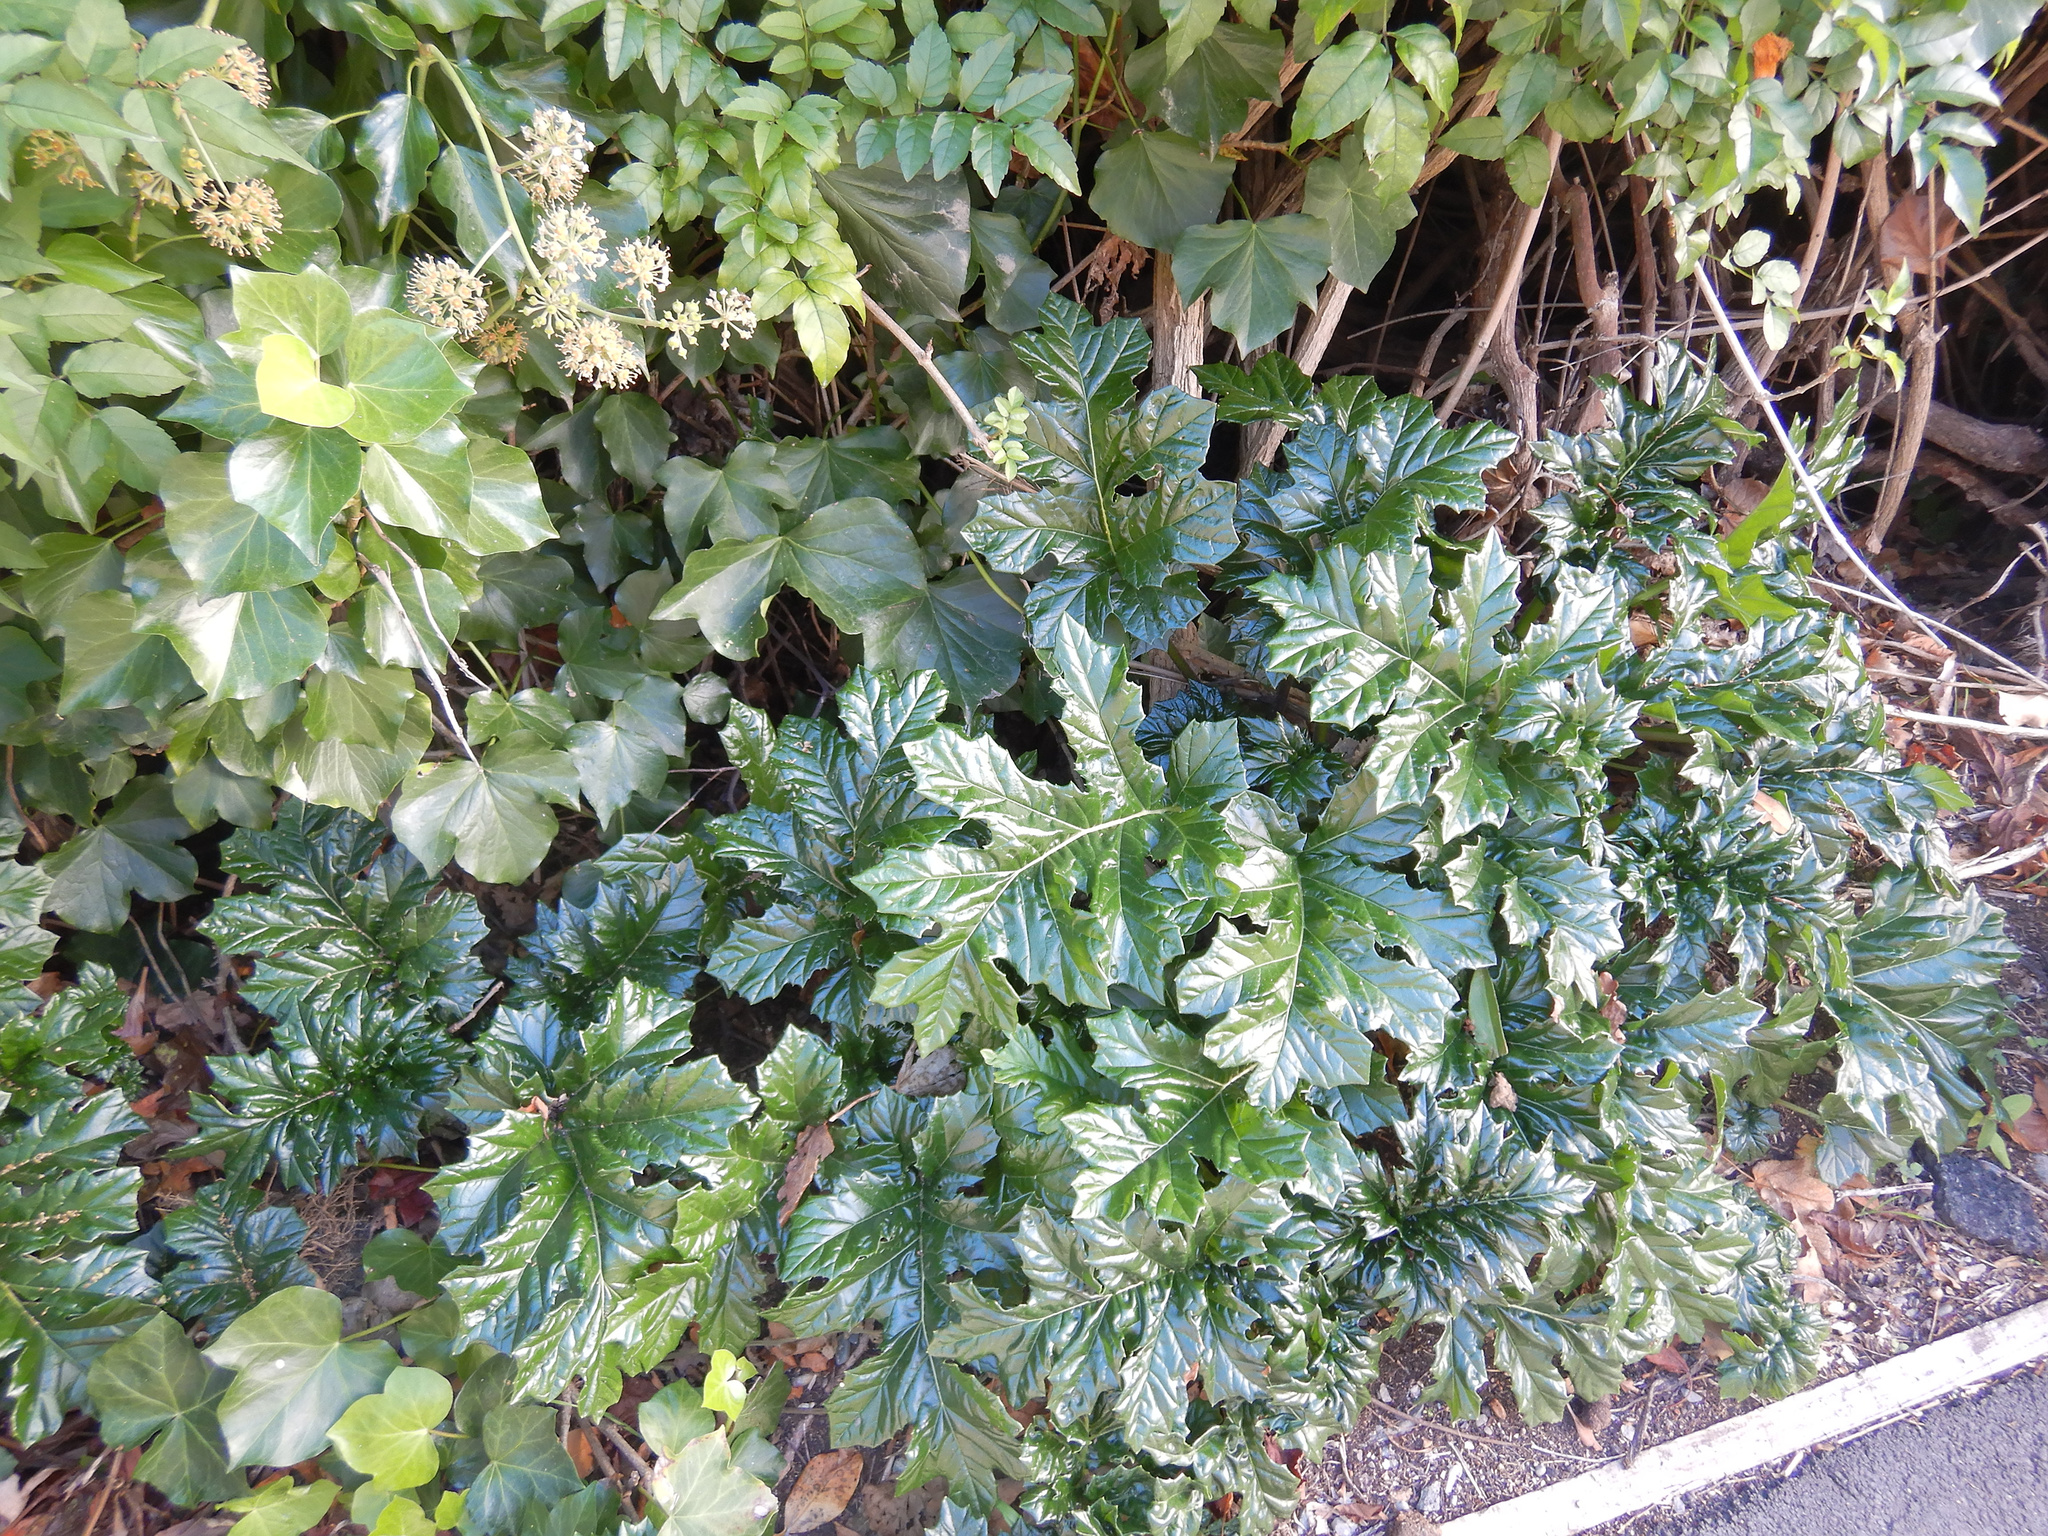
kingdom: Plantae
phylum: Tracheophyta
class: Magnoliopsida
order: Lamiales
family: Acanthaceae
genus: Acanthus
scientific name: Acanthus mollis
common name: Bear's-breech
